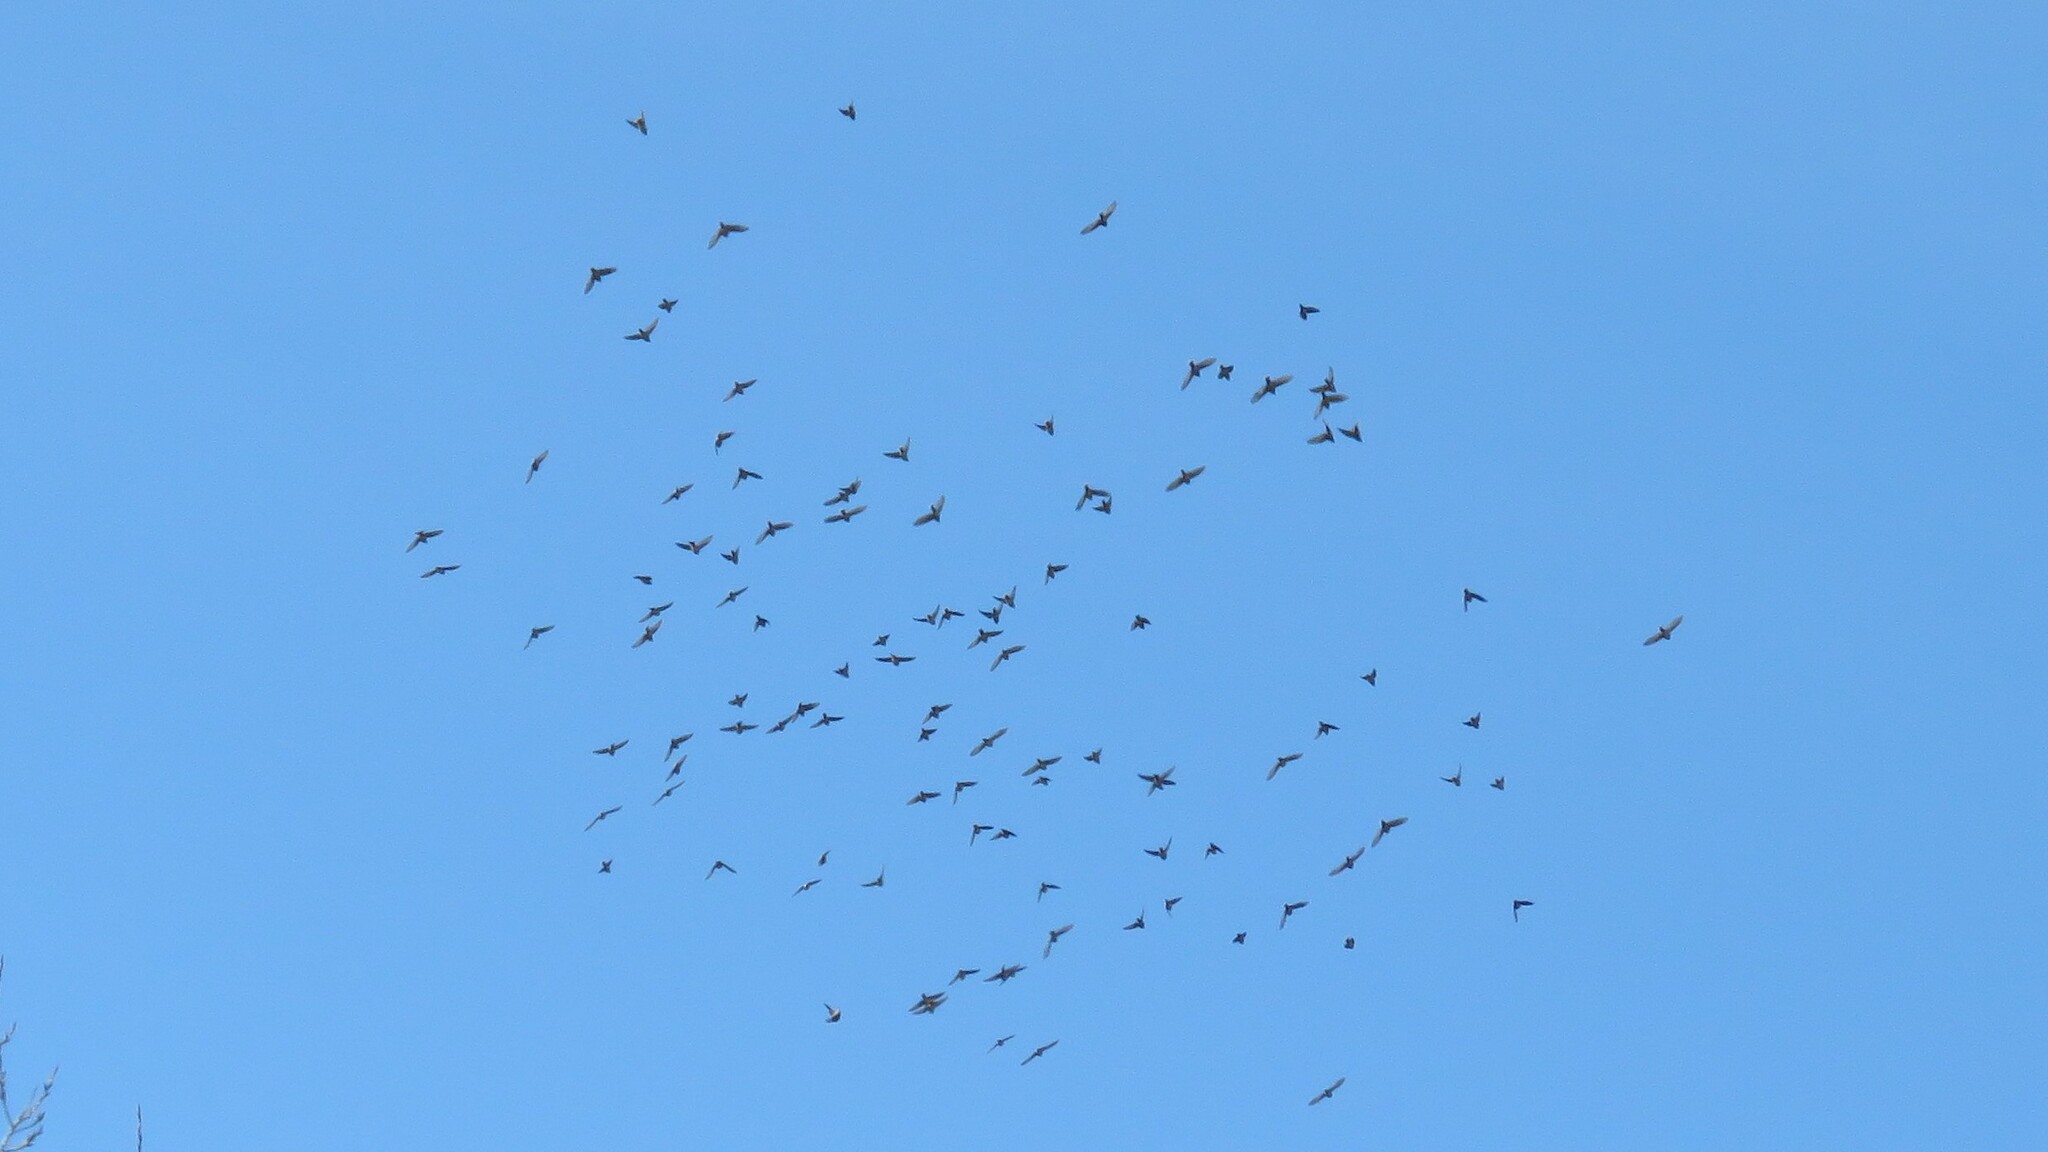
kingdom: Animalia
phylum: Chordata
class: Aves
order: Passeriformes
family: Bombycillidae
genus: Bombycilla
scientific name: Bombycilla garrulus
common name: Bohemian waxwing
